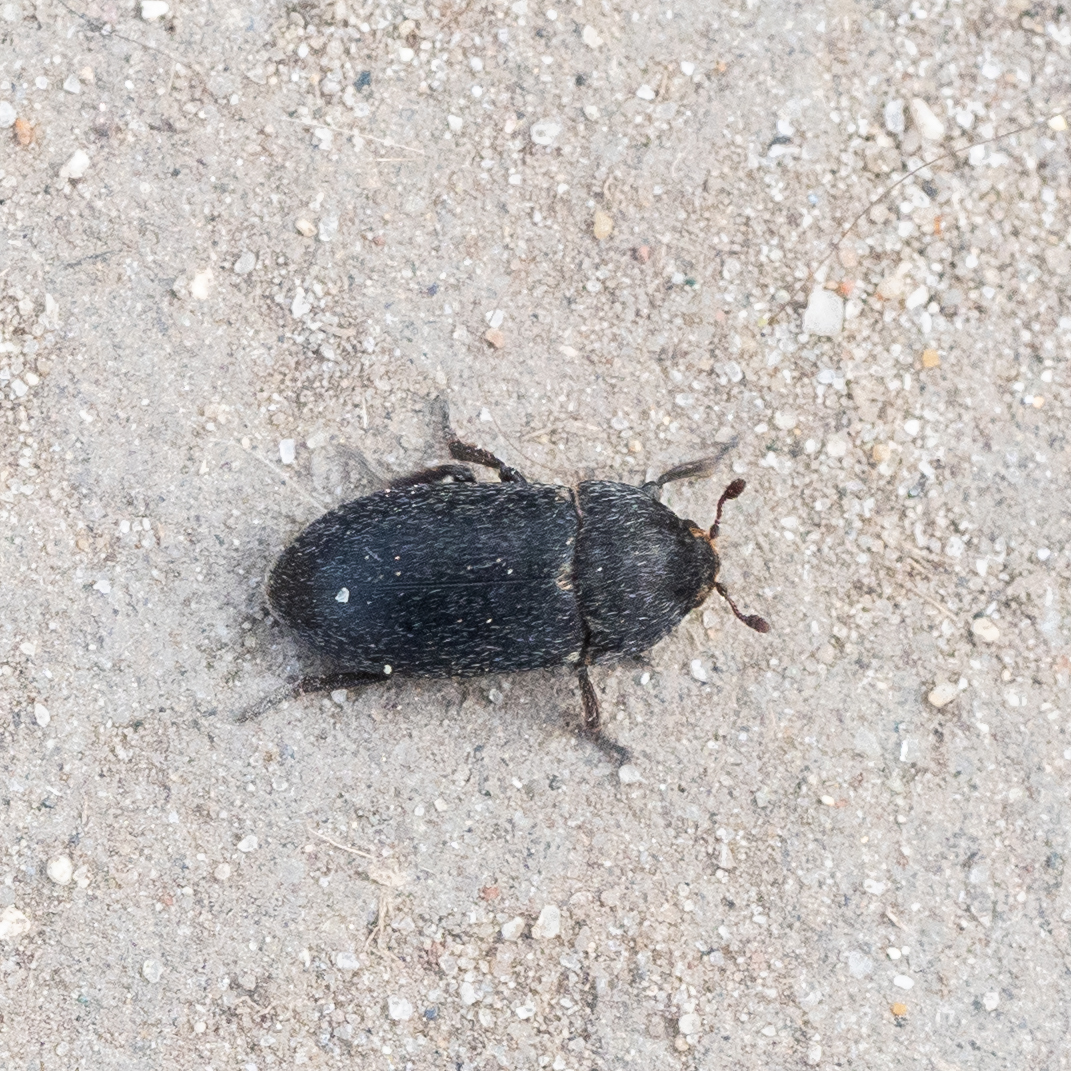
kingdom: Animalia
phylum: Arthropoda
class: Insecta
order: Coleoptera
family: Dermestidae
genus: Dermestes
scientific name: Dermestes laniarius
